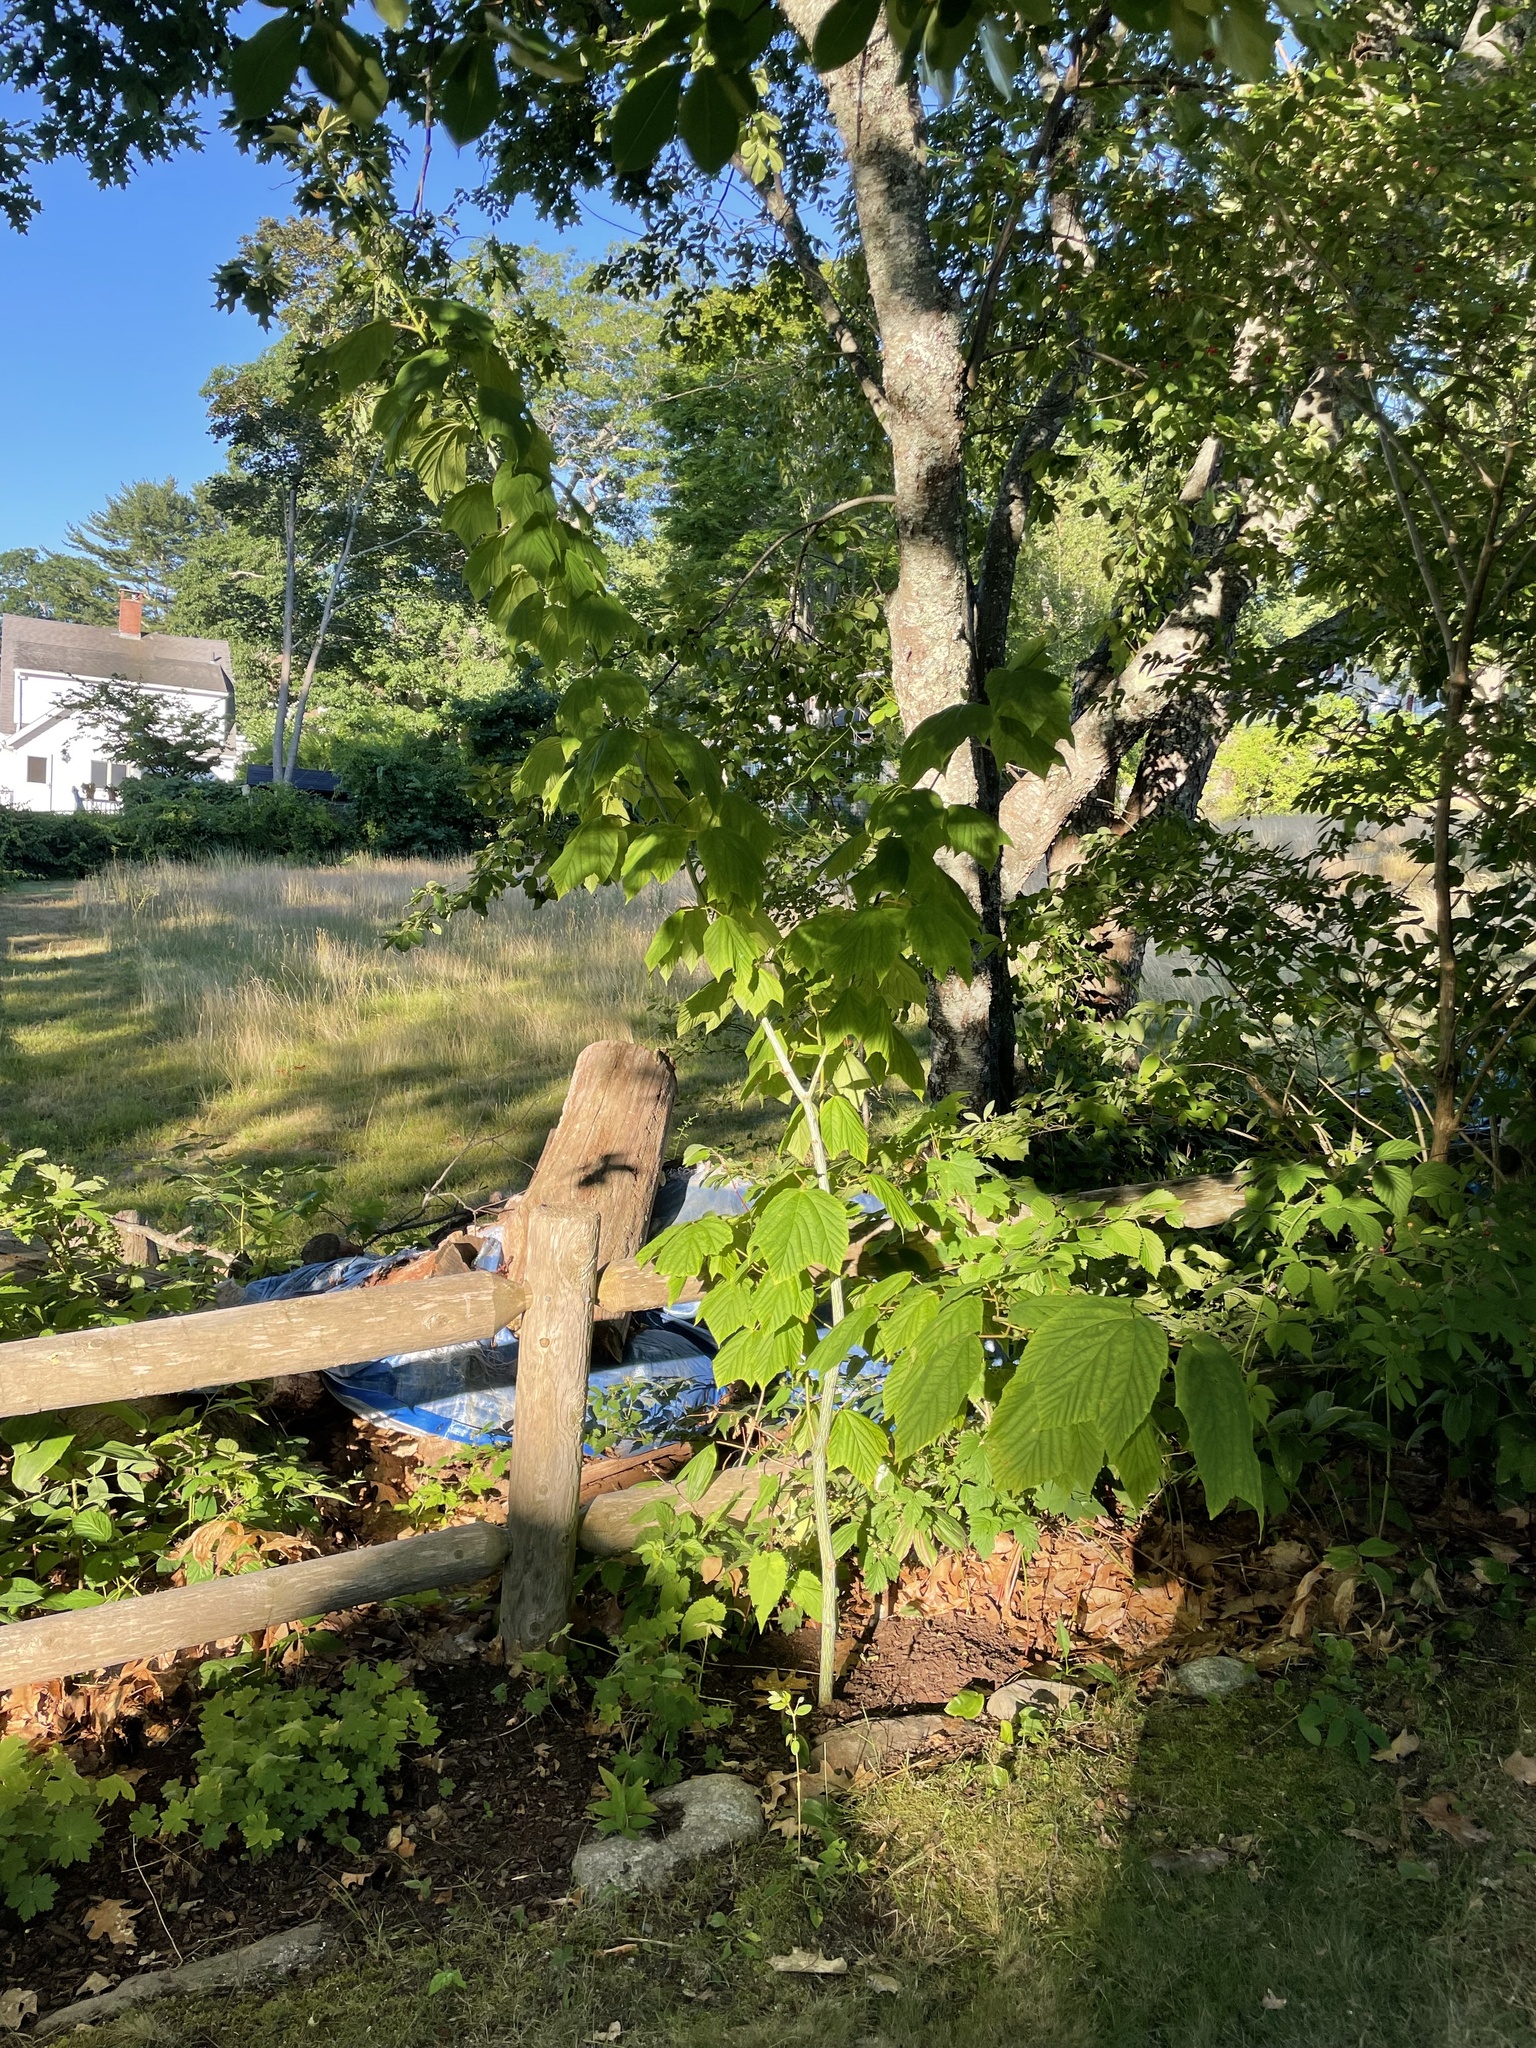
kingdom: Plantae
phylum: Tracheophyta
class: Magnoliopsida
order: Sapindales
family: Sapindaceae
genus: Acer
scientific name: Acer pensylvanicum
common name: Moosewood
